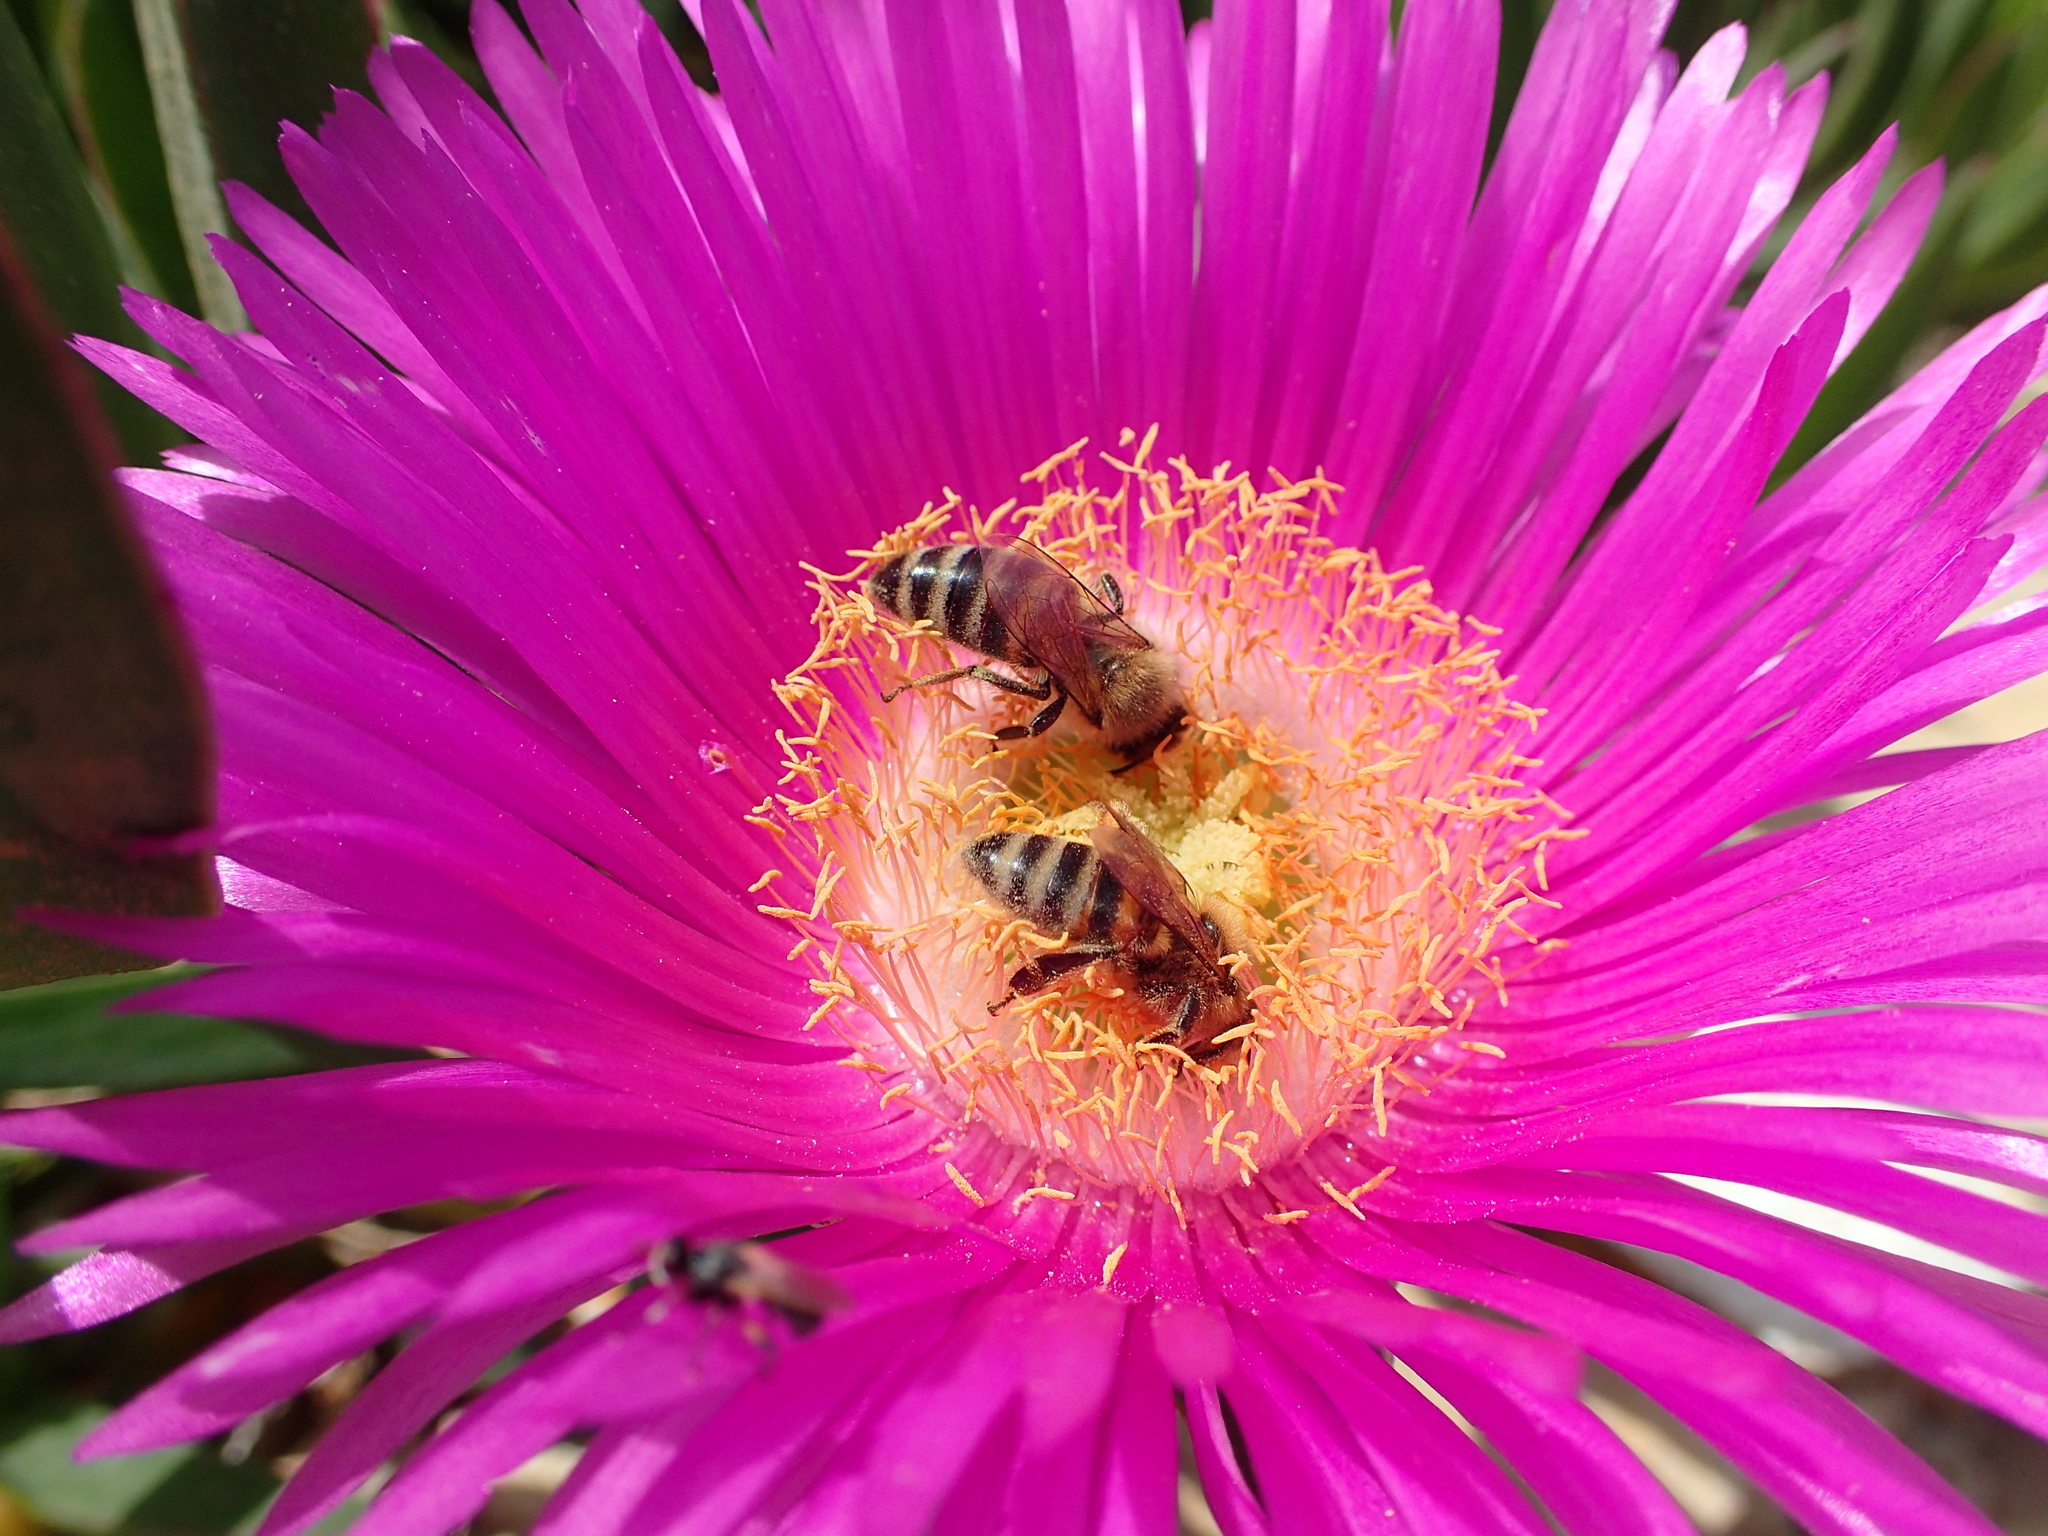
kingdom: Plantae
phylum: Tracheophyta
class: Magnoliopsida
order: Caryophyllales
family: Aizoaceae
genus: Carpobrotus
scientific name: Carpobrotus acinaciformis
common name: Sally-my-handsome
